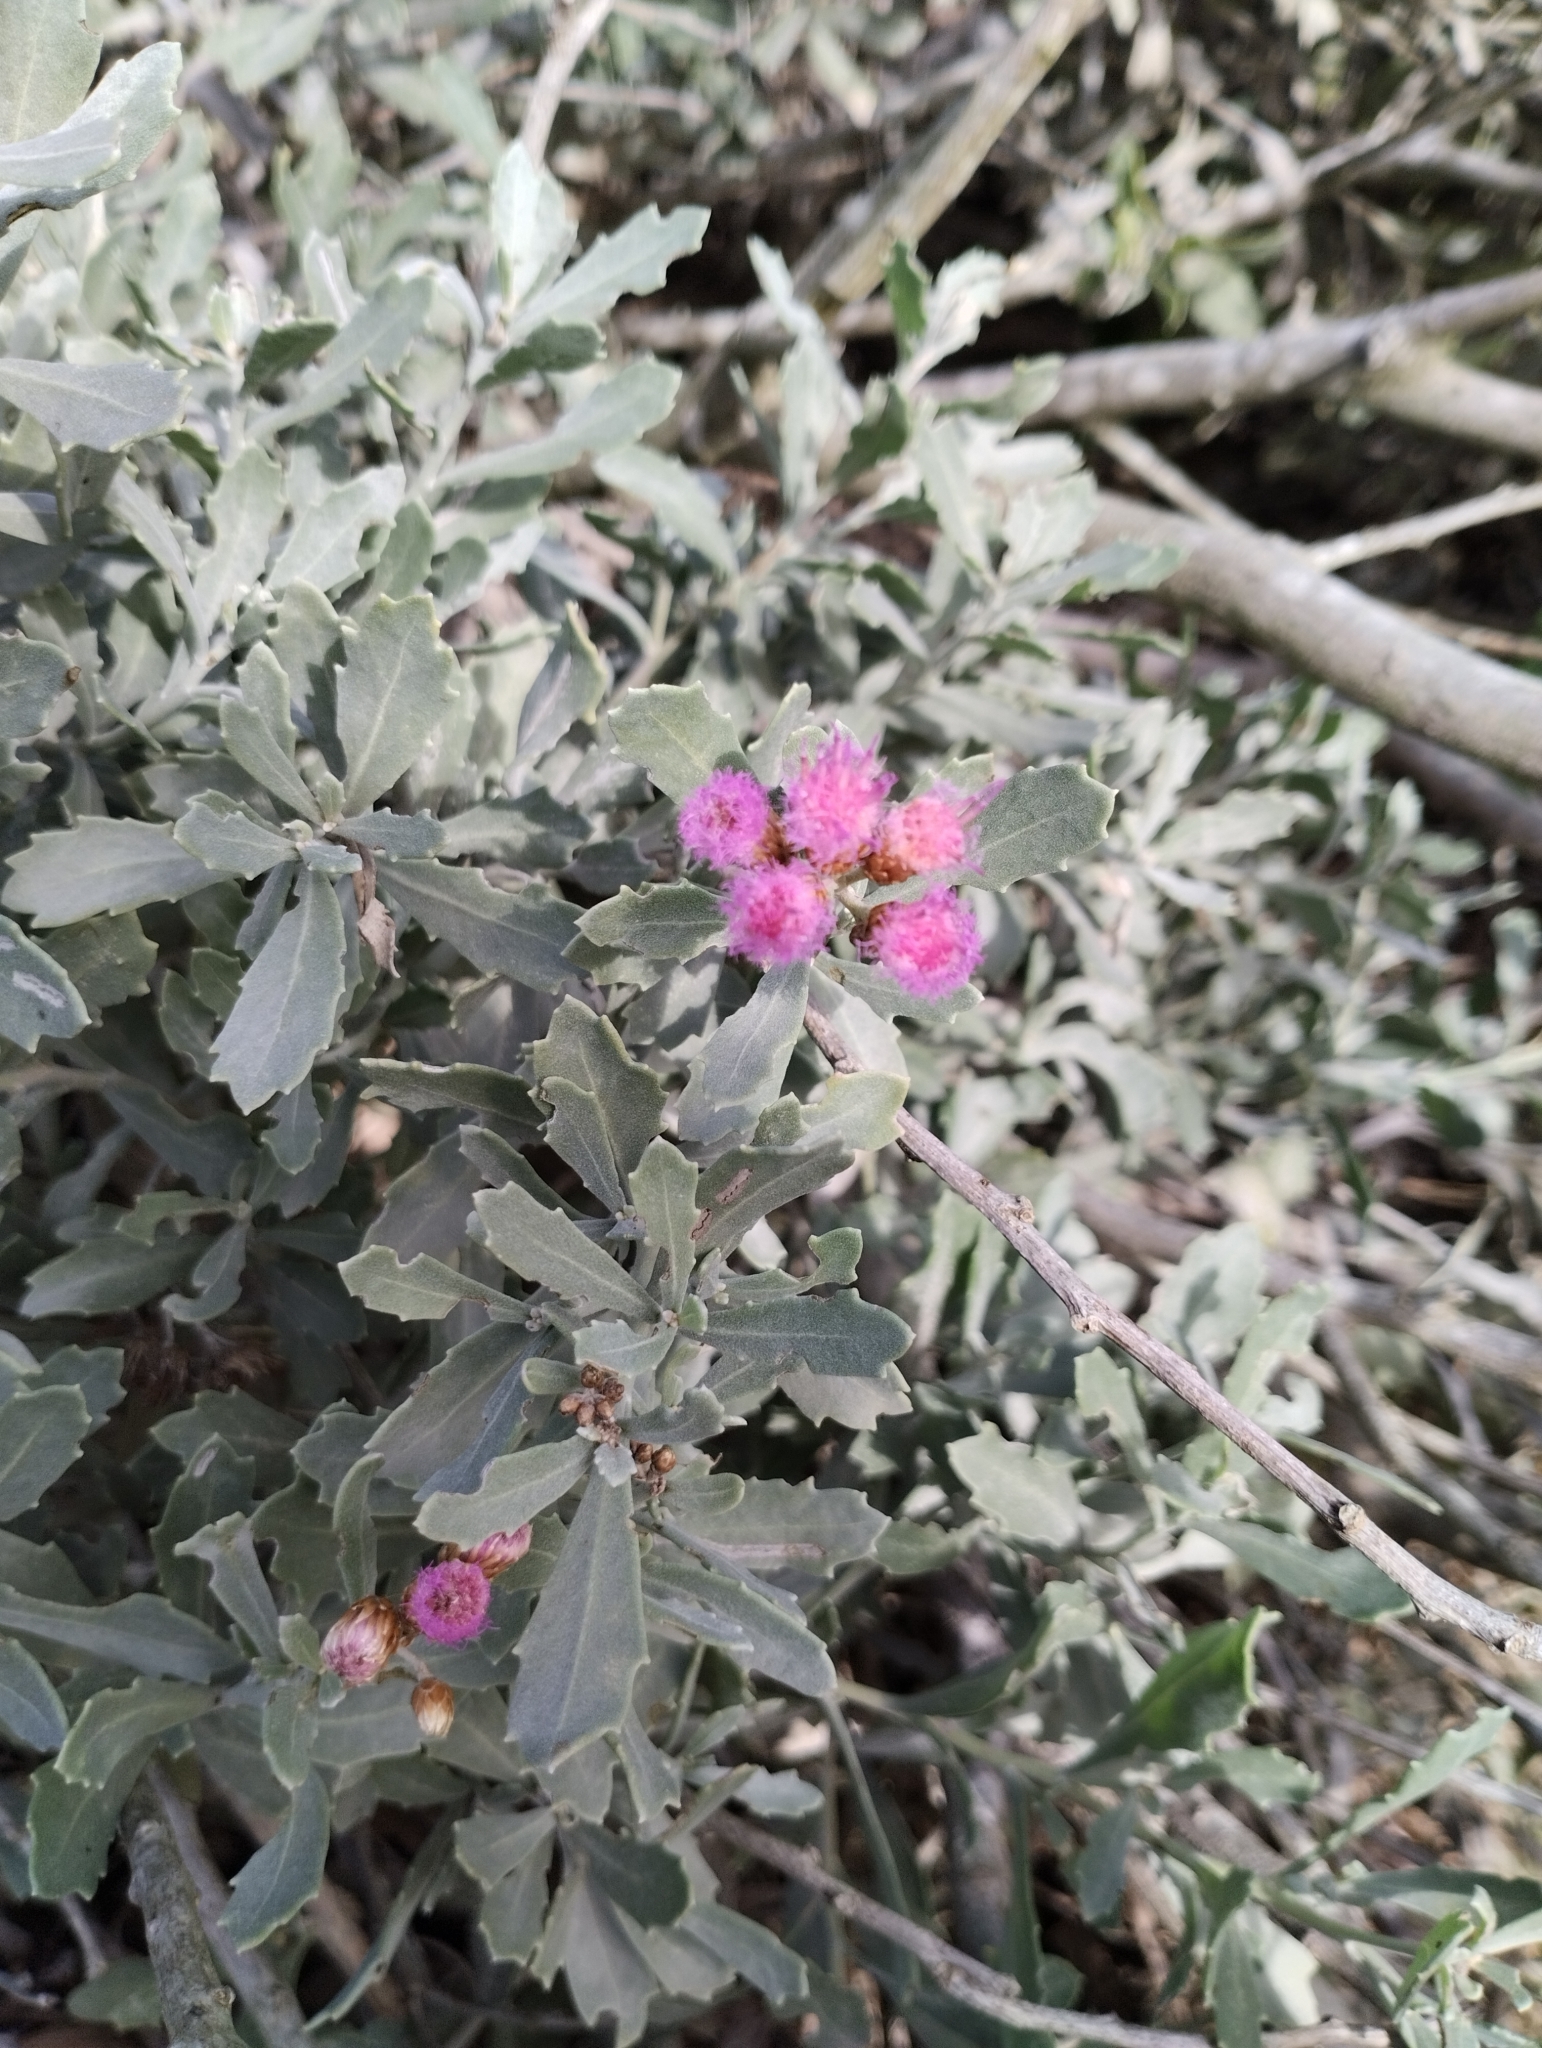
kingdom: Plantae
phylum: Tracheophyta
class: Magnoliopsida
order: Asterales
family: Asteraceae
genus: Tessaria
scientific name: Tessaria absinthioides
